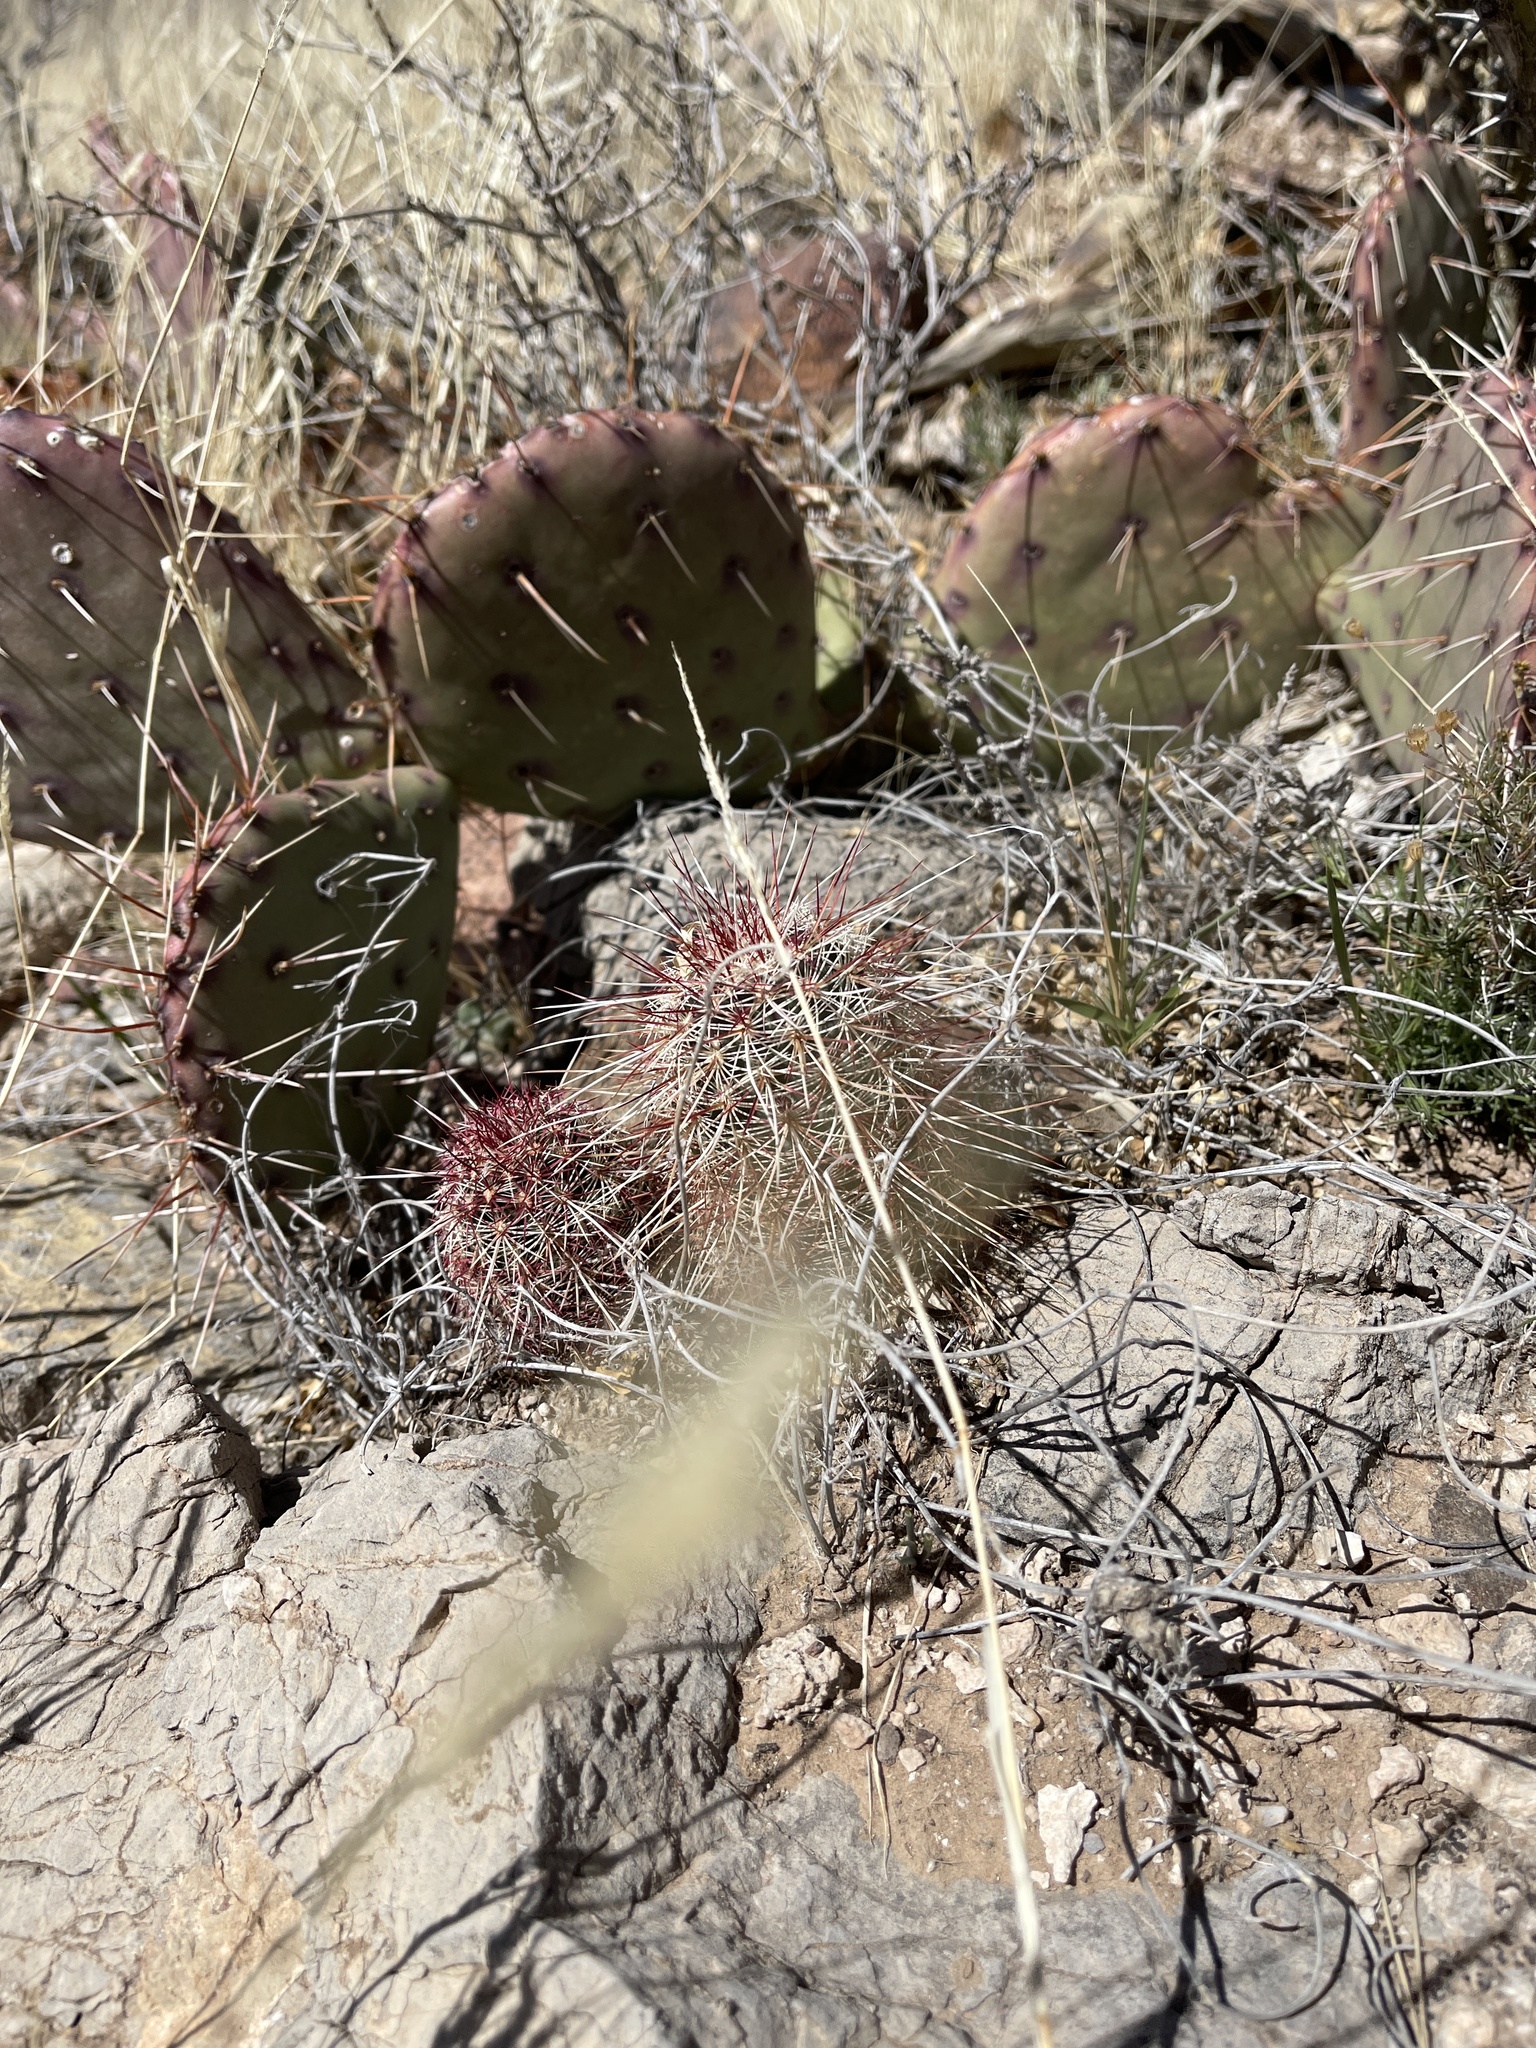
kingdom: Plantae
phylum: Tracheophyta
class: Magnoliopsida
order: Caryophyllales
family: Cactaceae
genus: Echinocereus
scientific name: Echinocereus viridiflorus
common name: Nylon hedgehog cactus
